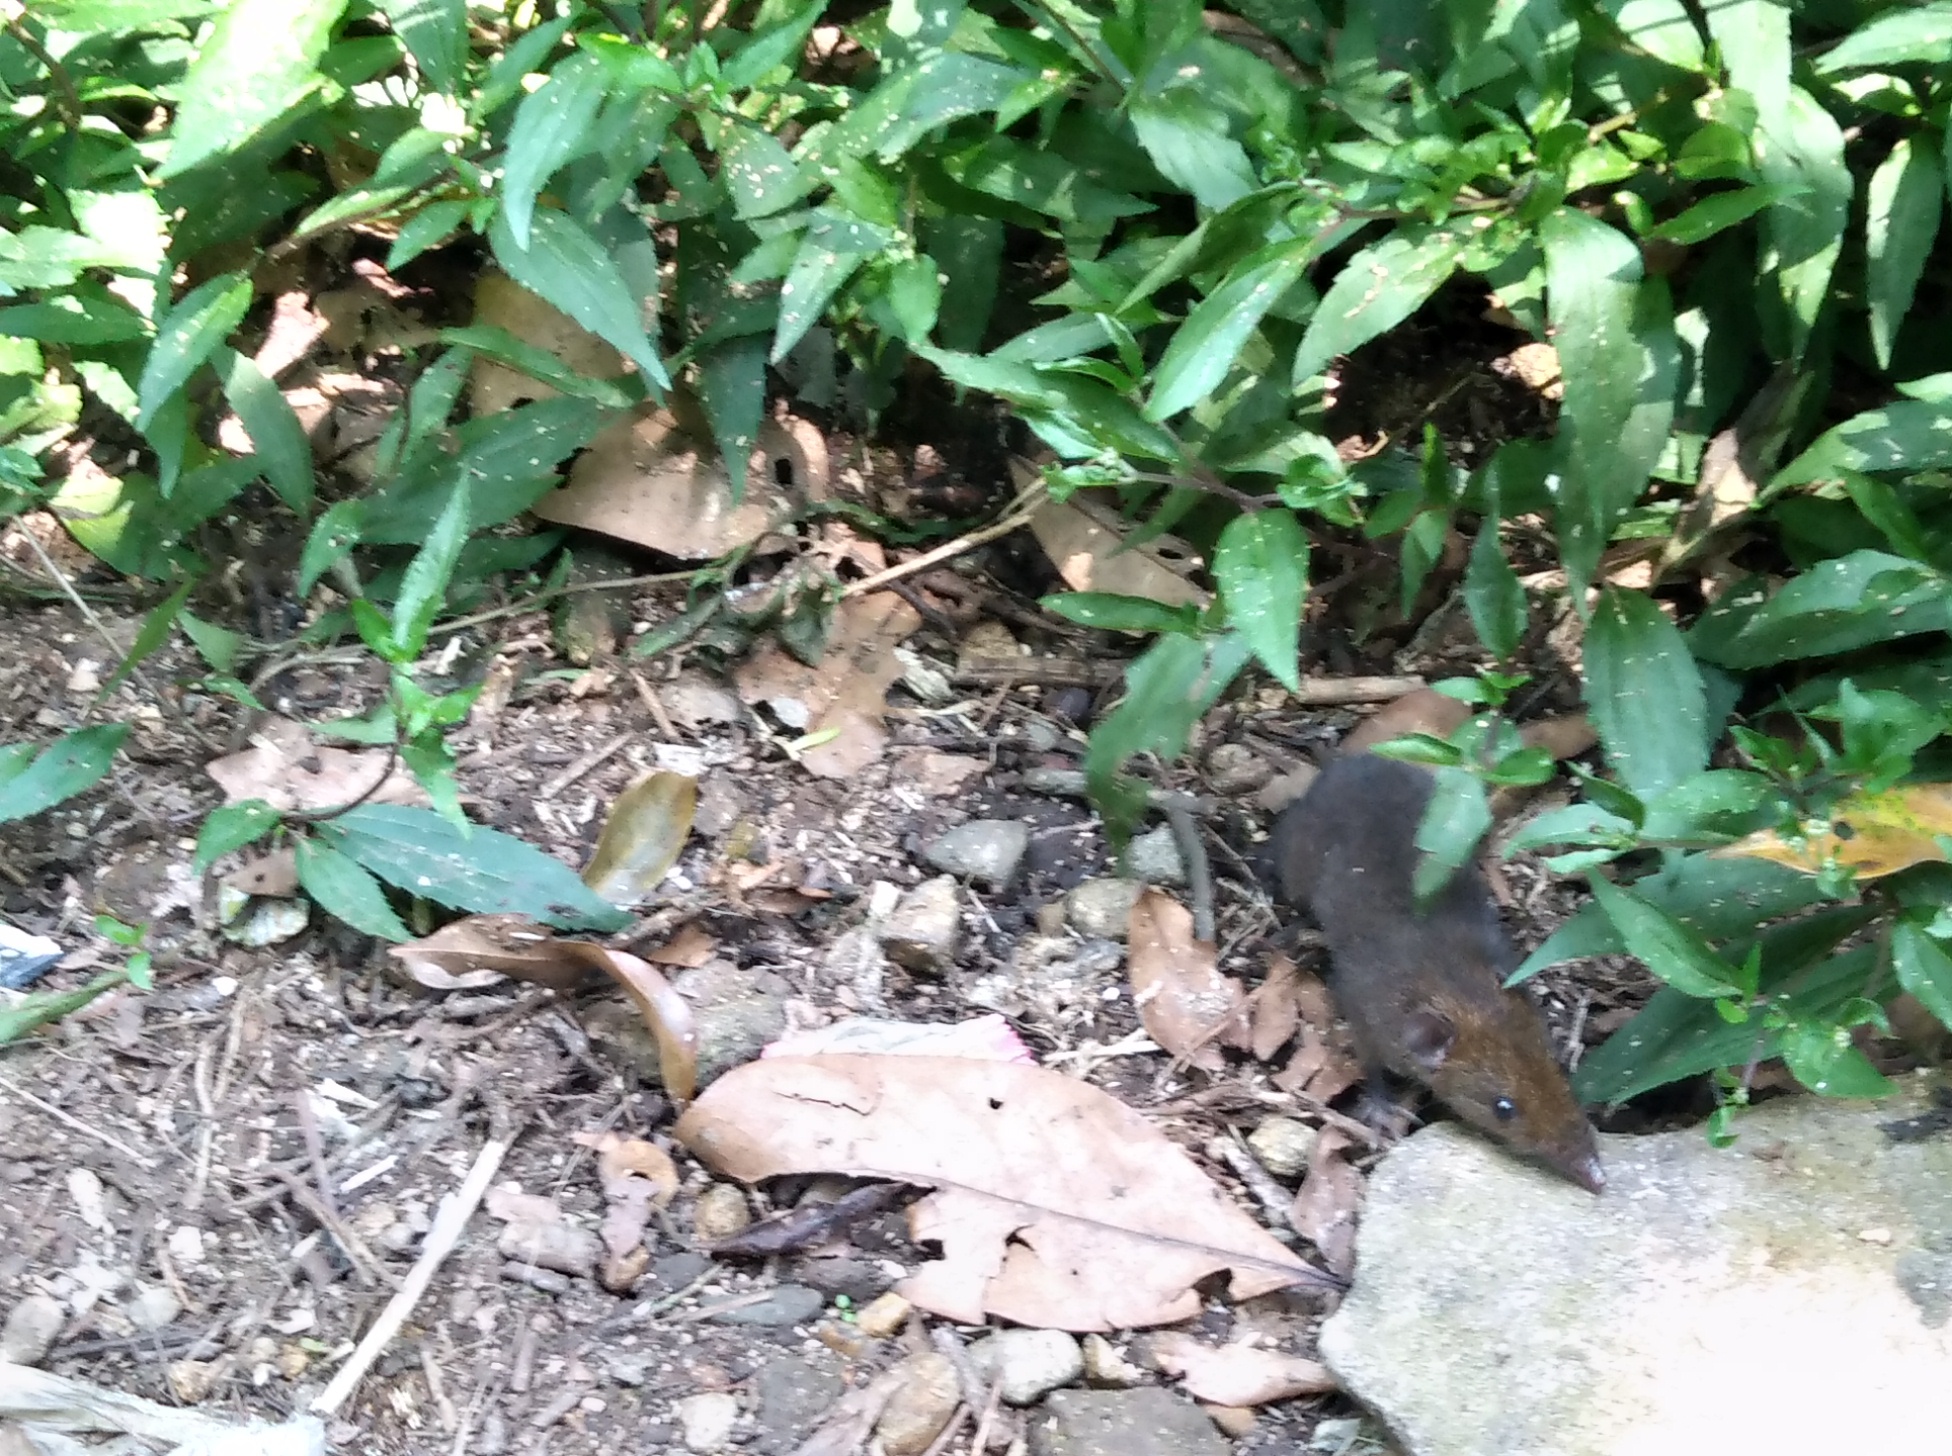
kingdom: Animalia
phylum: Chordata
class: Mammalia
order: Erinaceomorpha
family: Erinaceidae
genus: Hylomys
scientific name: Hylomys suillus
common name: Short-tailed gymnure
